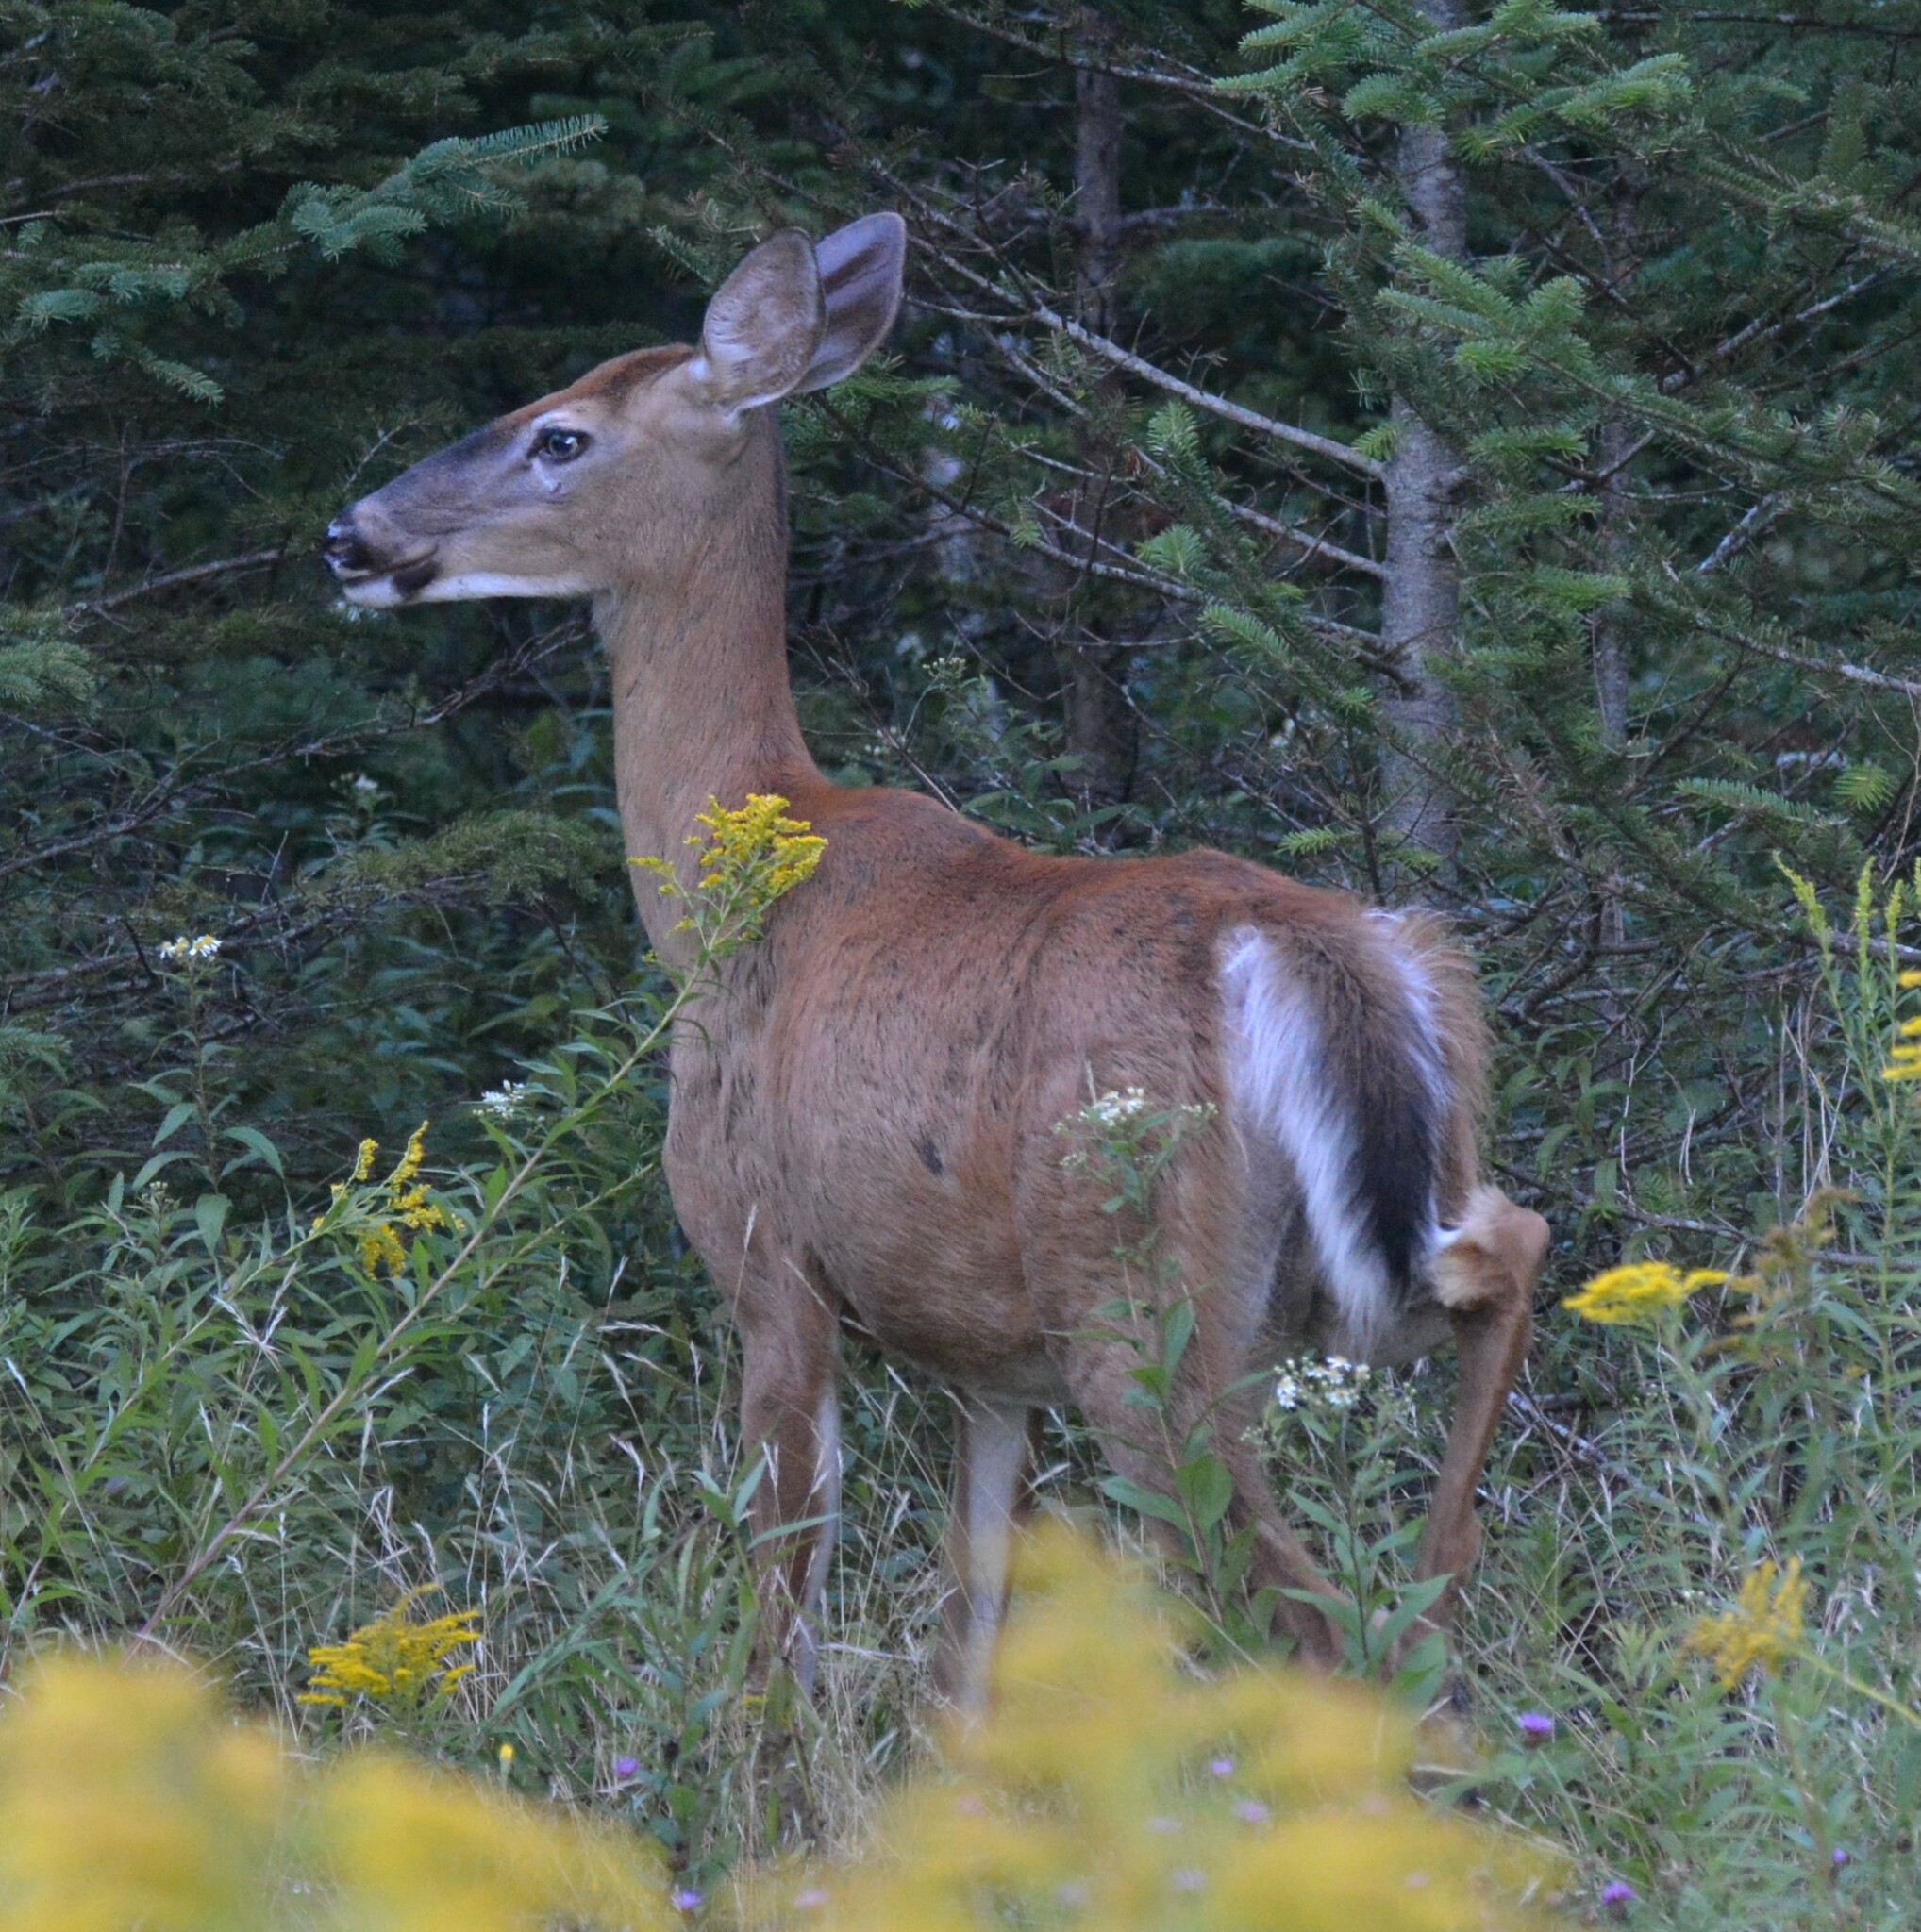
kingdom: Animalia
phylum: Chordata
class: Mammalia
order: Artiodactyla
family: Cervidae
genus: Odocoileus
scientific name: Odocoileus virginianus
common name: White-tailed deer
